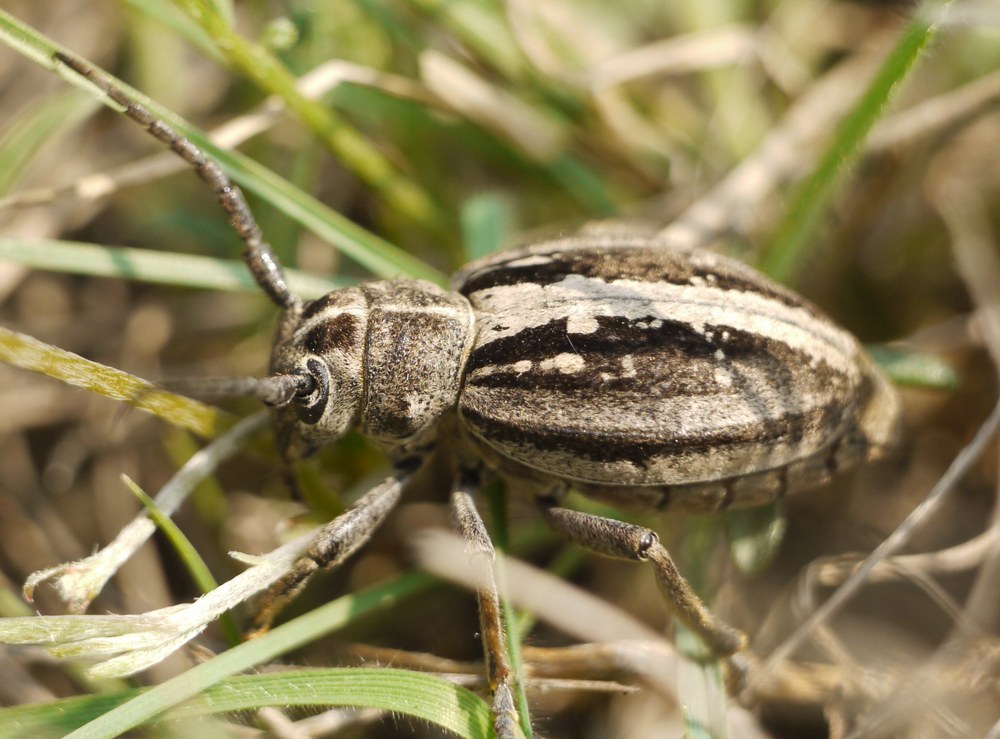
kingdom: Animalia
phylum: Arthropoda
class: Insecta
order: Coleoptera
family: Cerambycidae
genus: Dorcadion
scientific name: Dorcadion equestre
